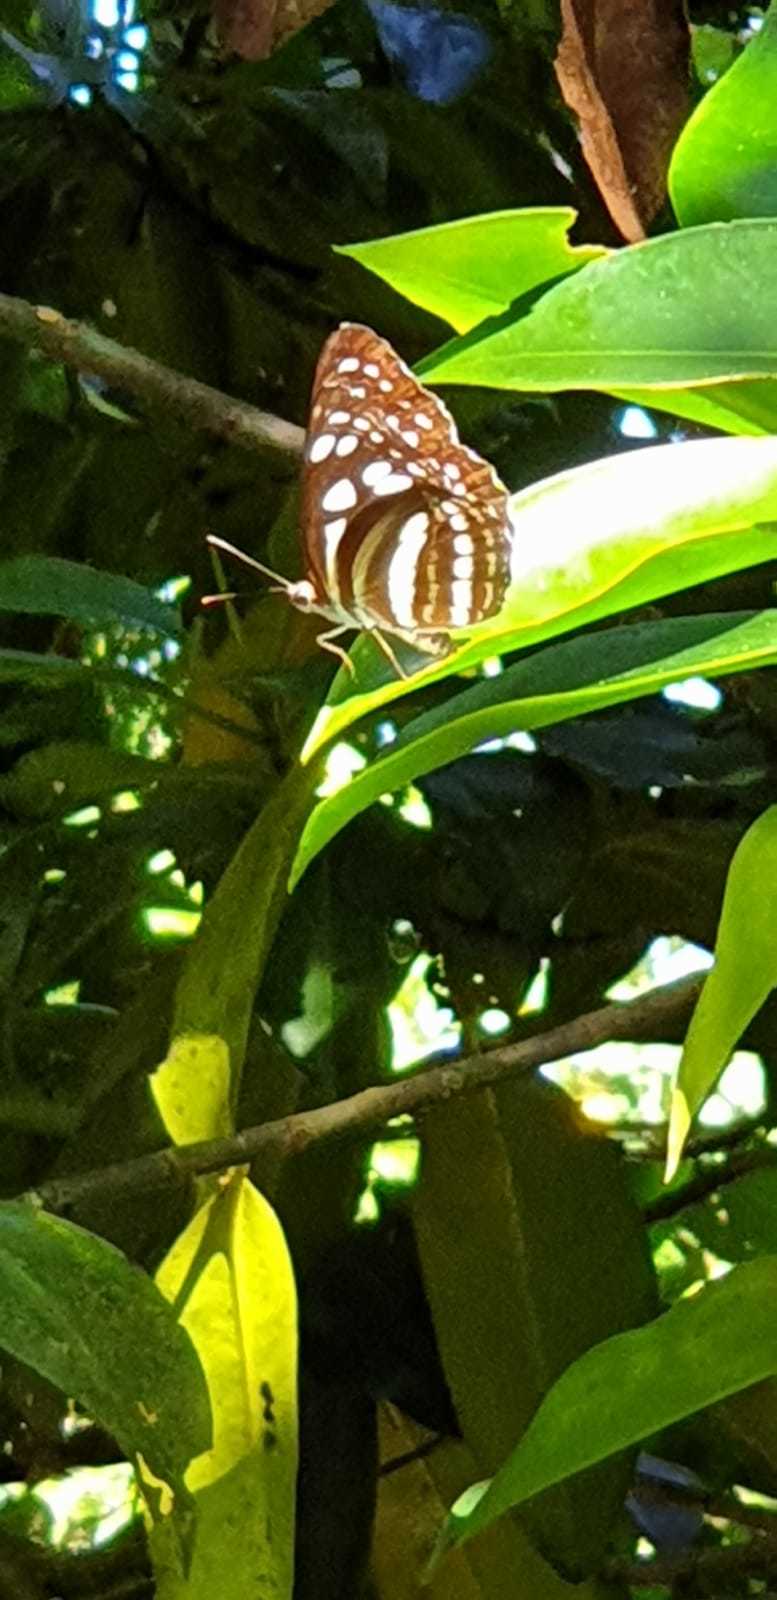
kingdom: Animalia
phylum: Arthropoda
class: Insecta
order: Lepidoptera
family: Nymphalidae
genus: Phaedyma
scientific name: Phaedyma columella
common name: Short banded sailer
